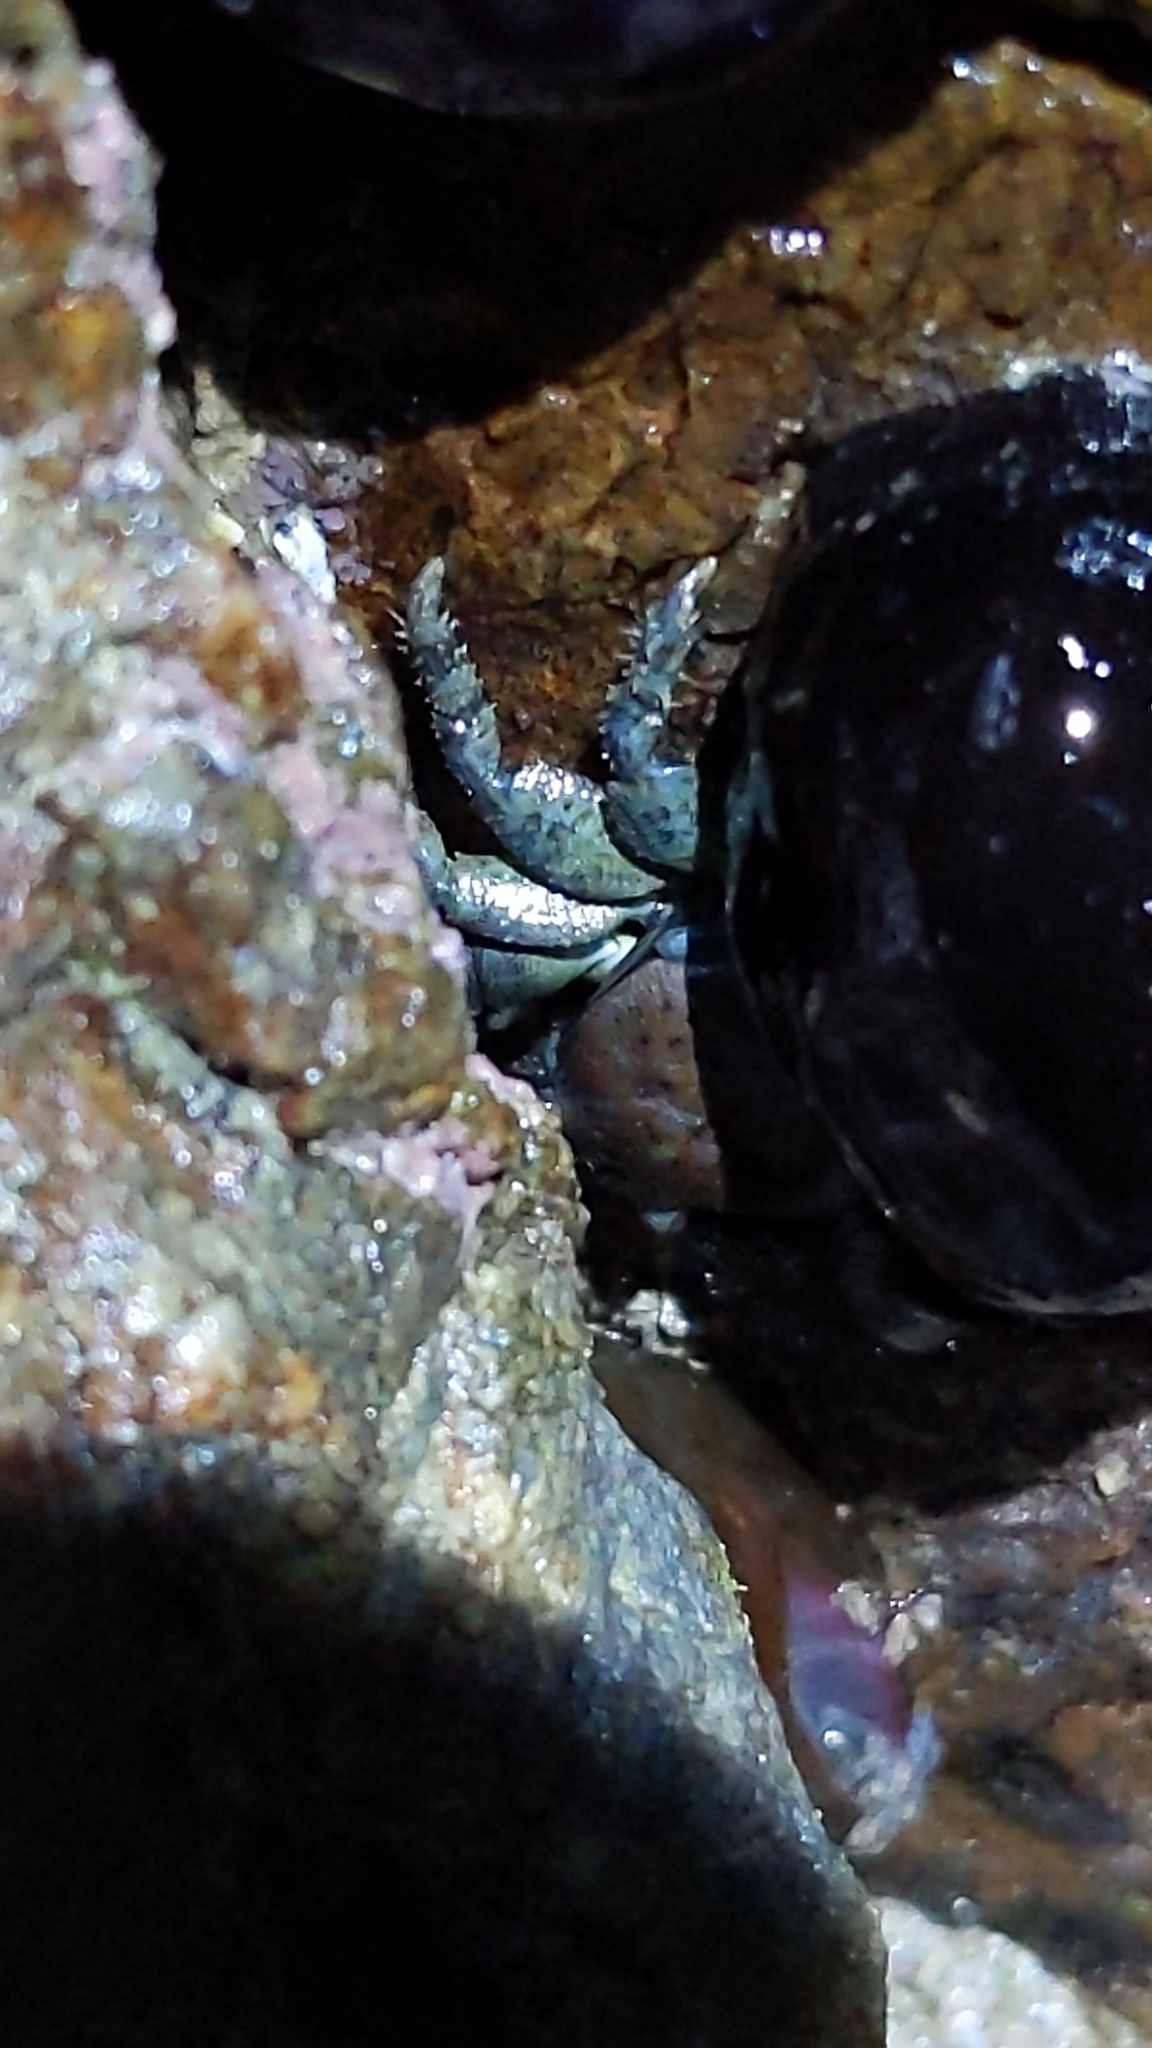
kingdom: Animalia
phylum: Arthropoda
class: Malacostraca
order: Decapoda
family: Porcellanidae
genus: Petrolisthes
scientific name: Petrolisthes elongatus
